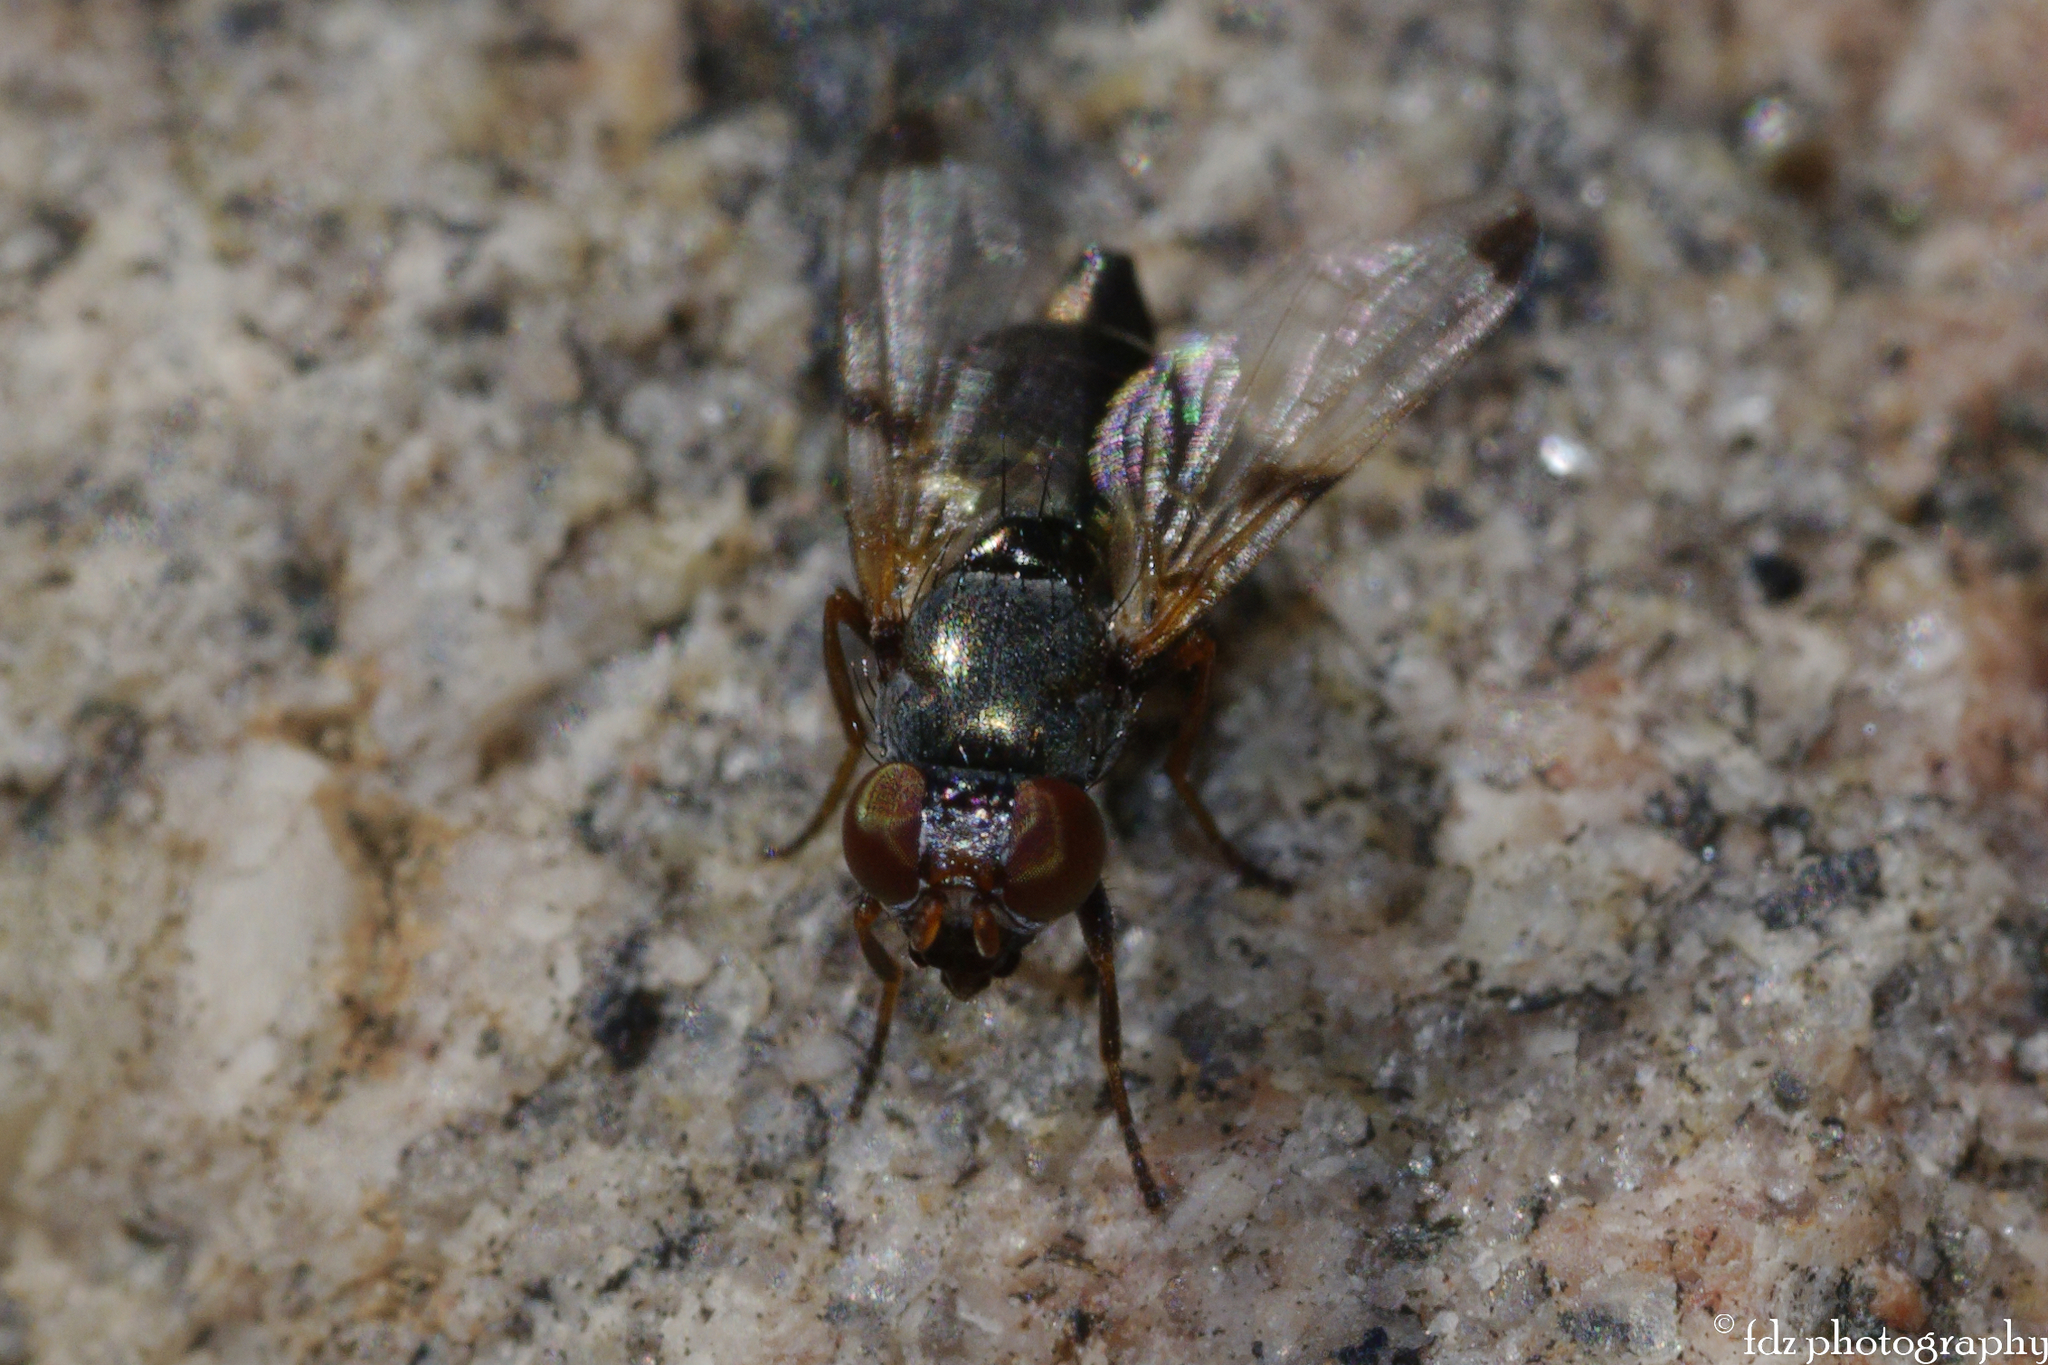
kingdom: Animalia
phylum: Arthropoda
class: Insecta
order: Diptera
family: Ulidiidae
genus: Euxesta
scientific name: Euxesta pechumani
